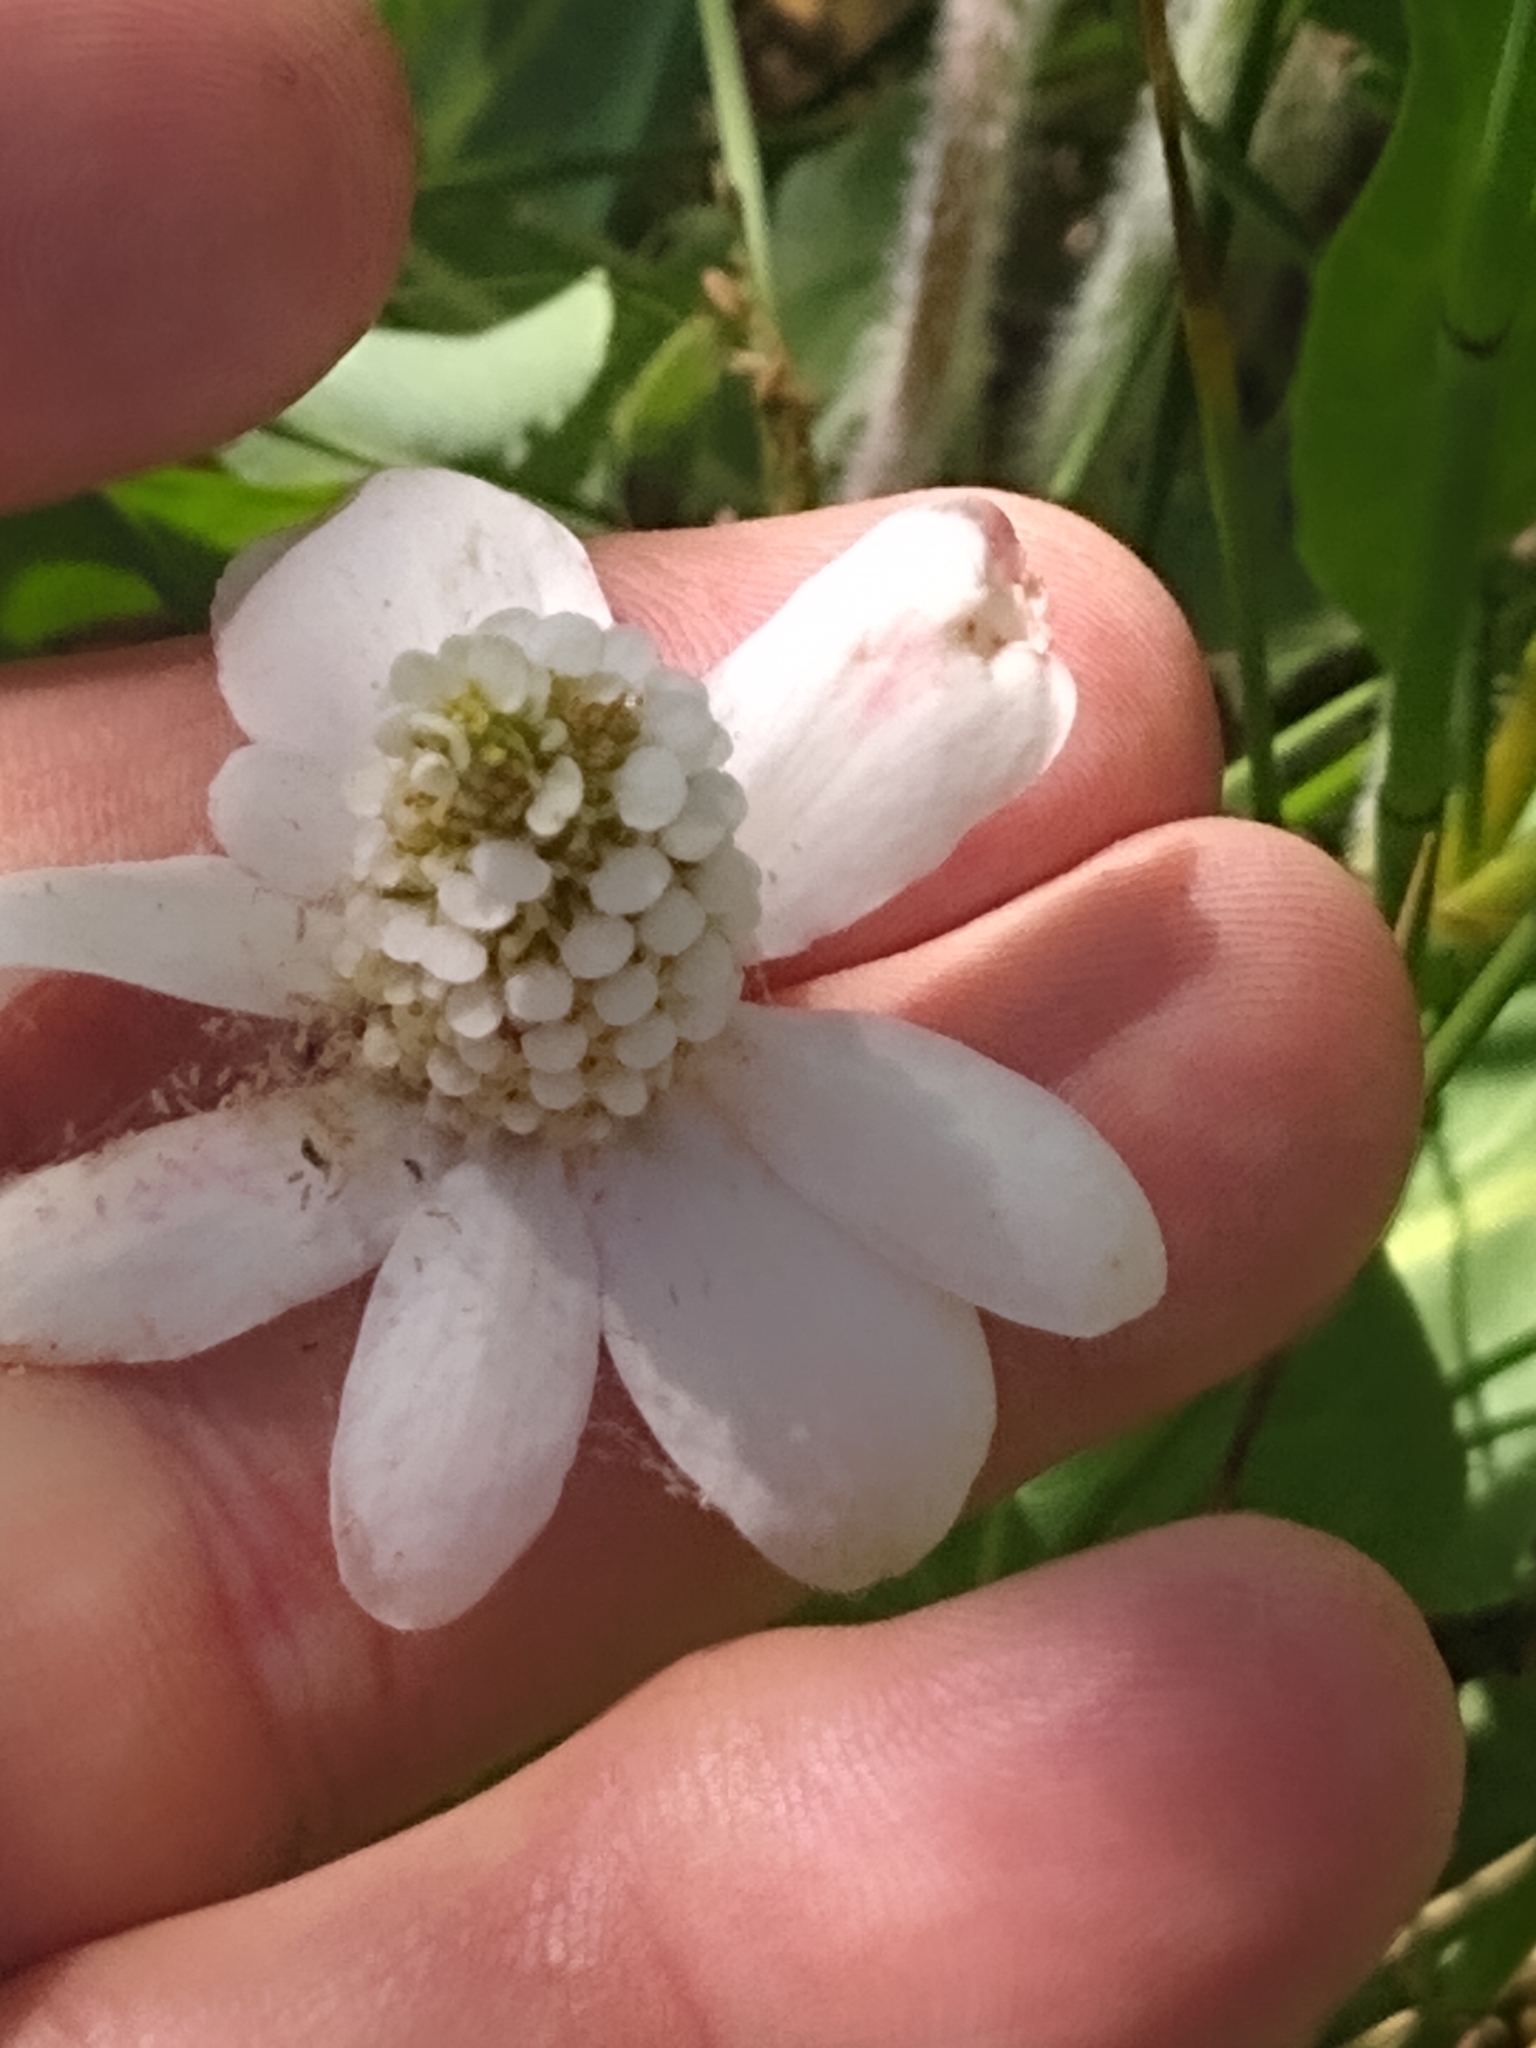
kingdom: Plantae
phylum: Tracheophyta
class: Magnoliopsida
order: Piperales
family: Saururaceae
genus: Anemopsis
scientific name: Anemopsis californica
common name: Apache-beads
